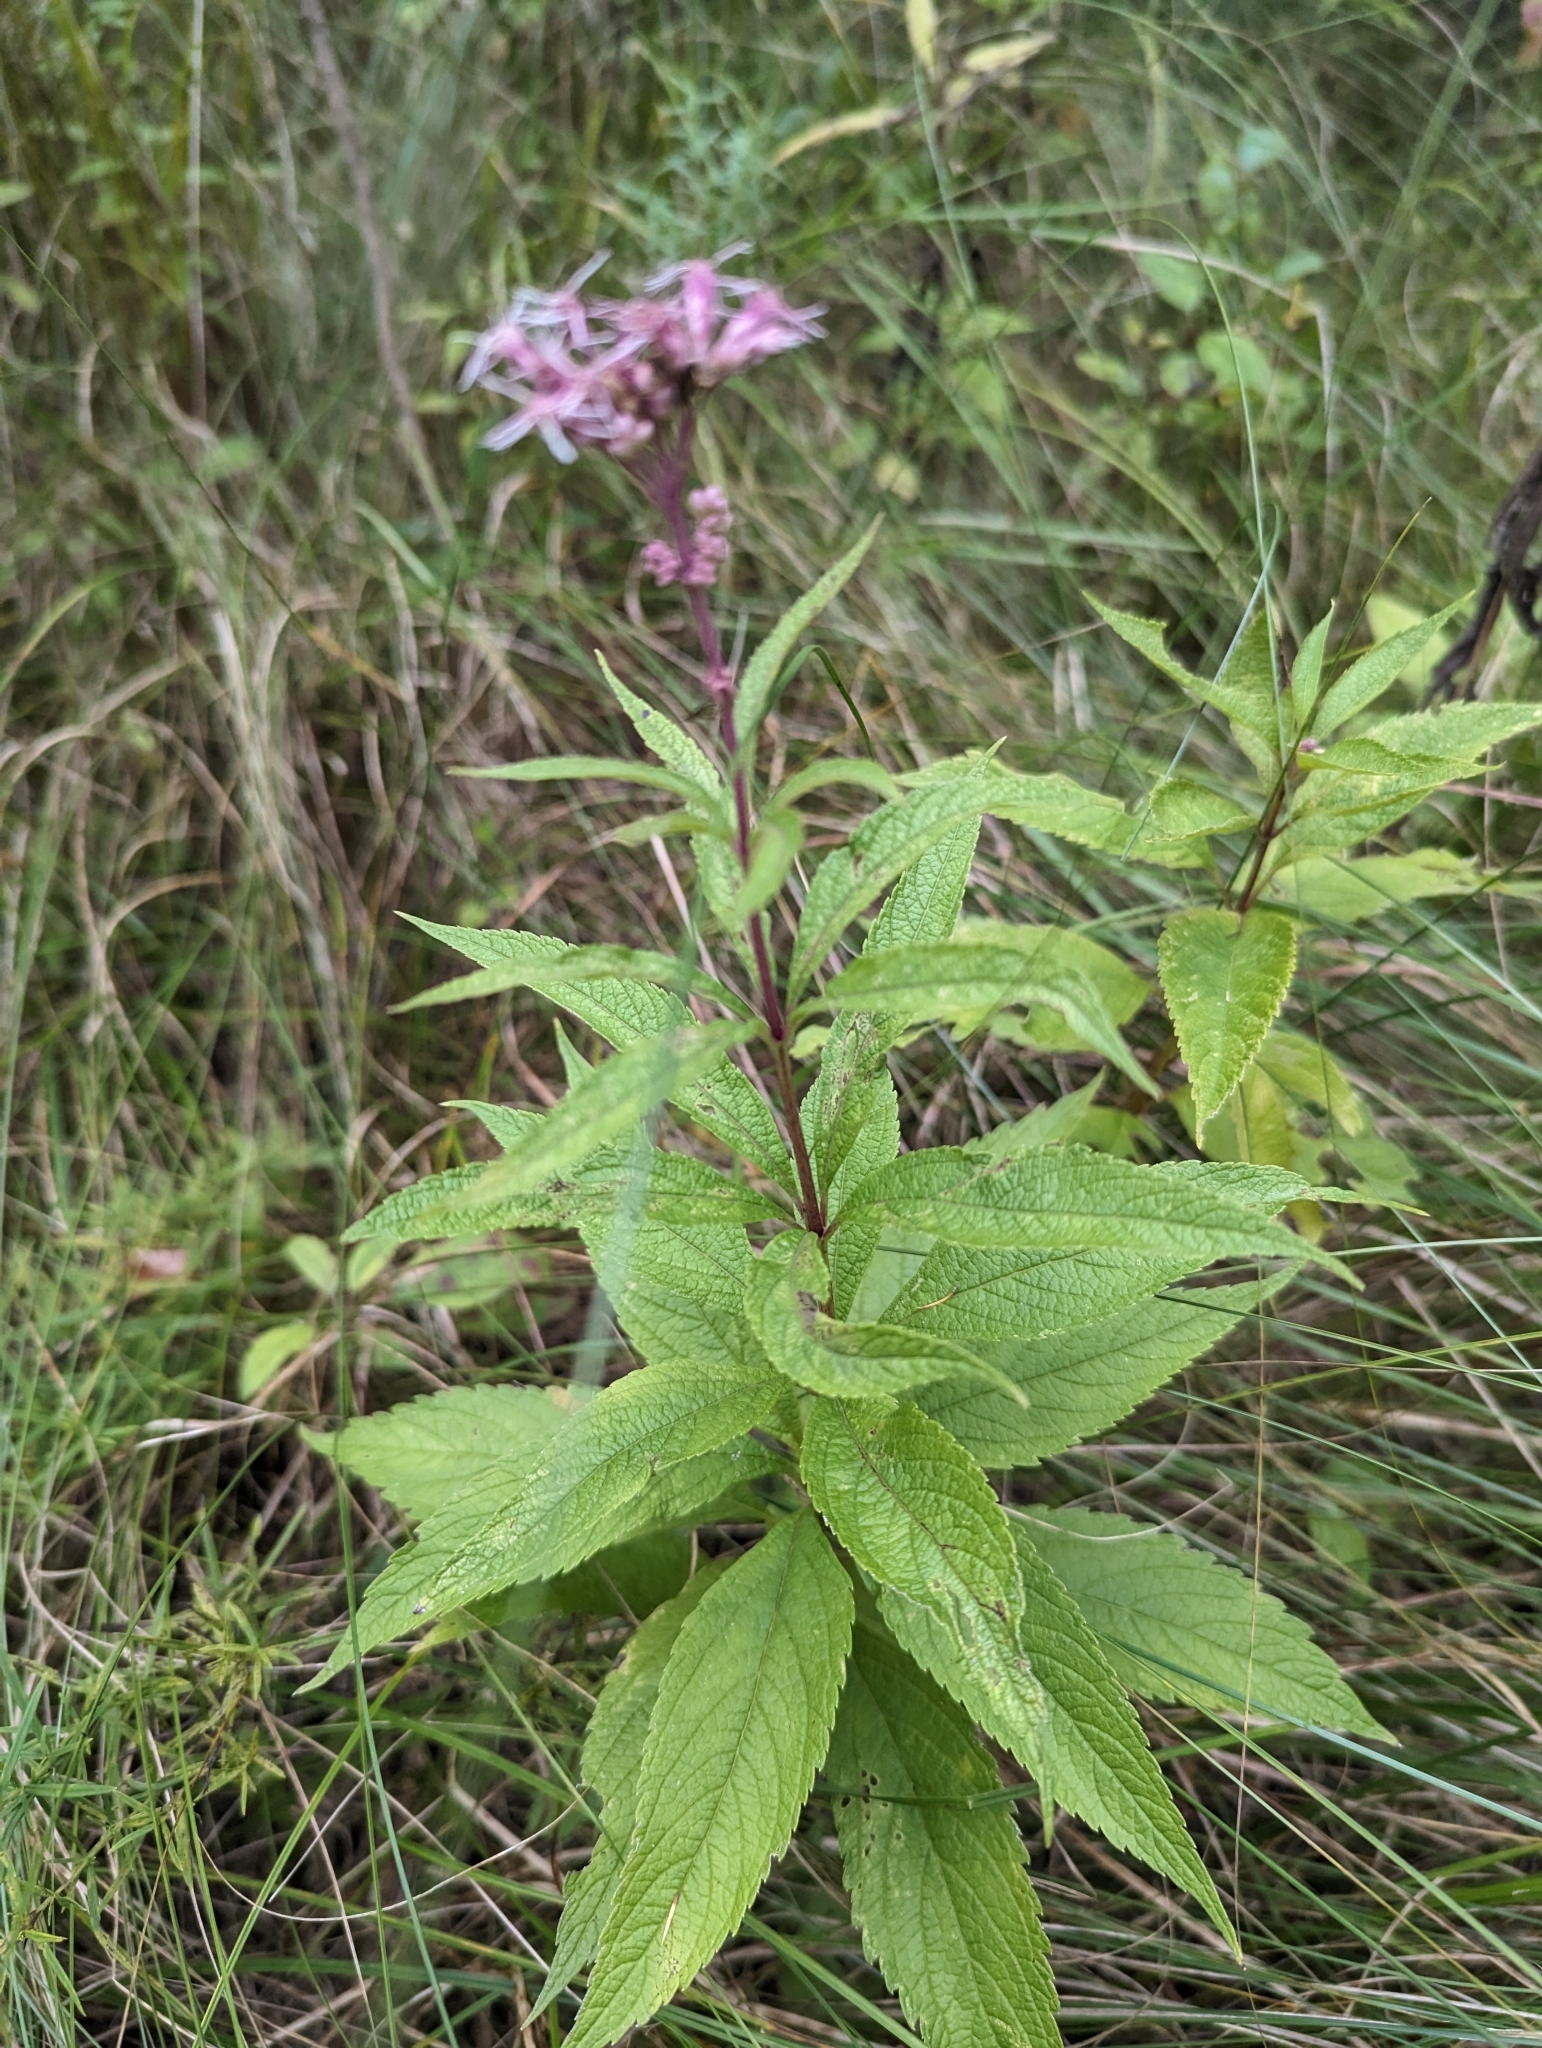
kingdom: Plantae
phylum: Tracheophyta
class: Magnoliopsida
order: Asterales
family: Asteraceae
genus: Eutrochium
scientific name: Eutrochium maculatum
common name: Spotted joe pye weed
